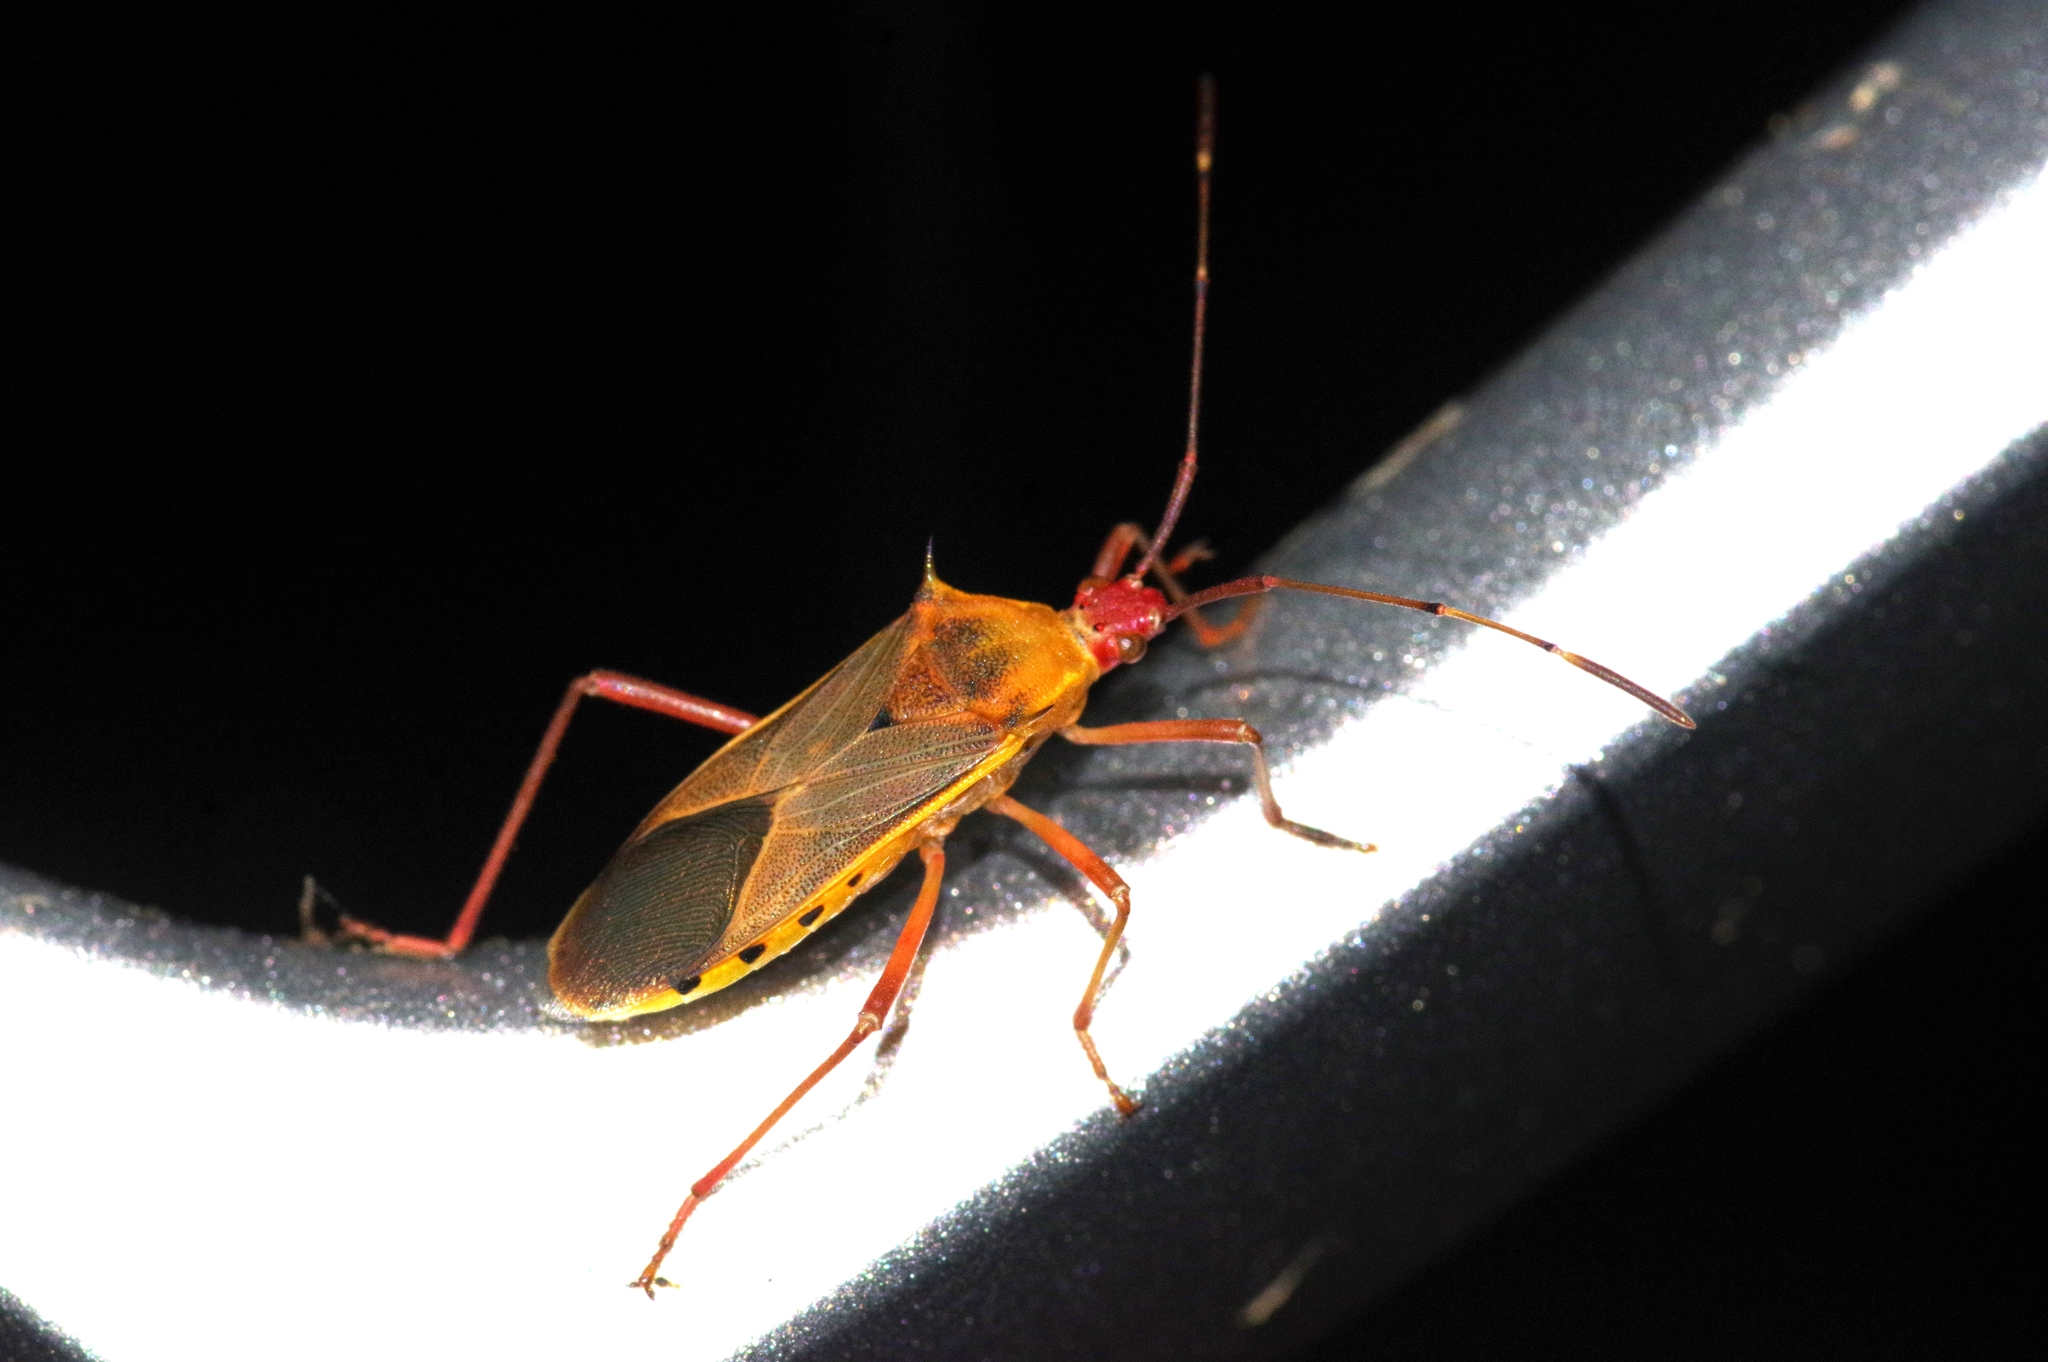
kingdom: Animalia
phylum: Arthropoda
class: Insecta
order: Hemiptera
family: Coreidae
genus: Plinachtus
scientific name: Plinachtus basalis
